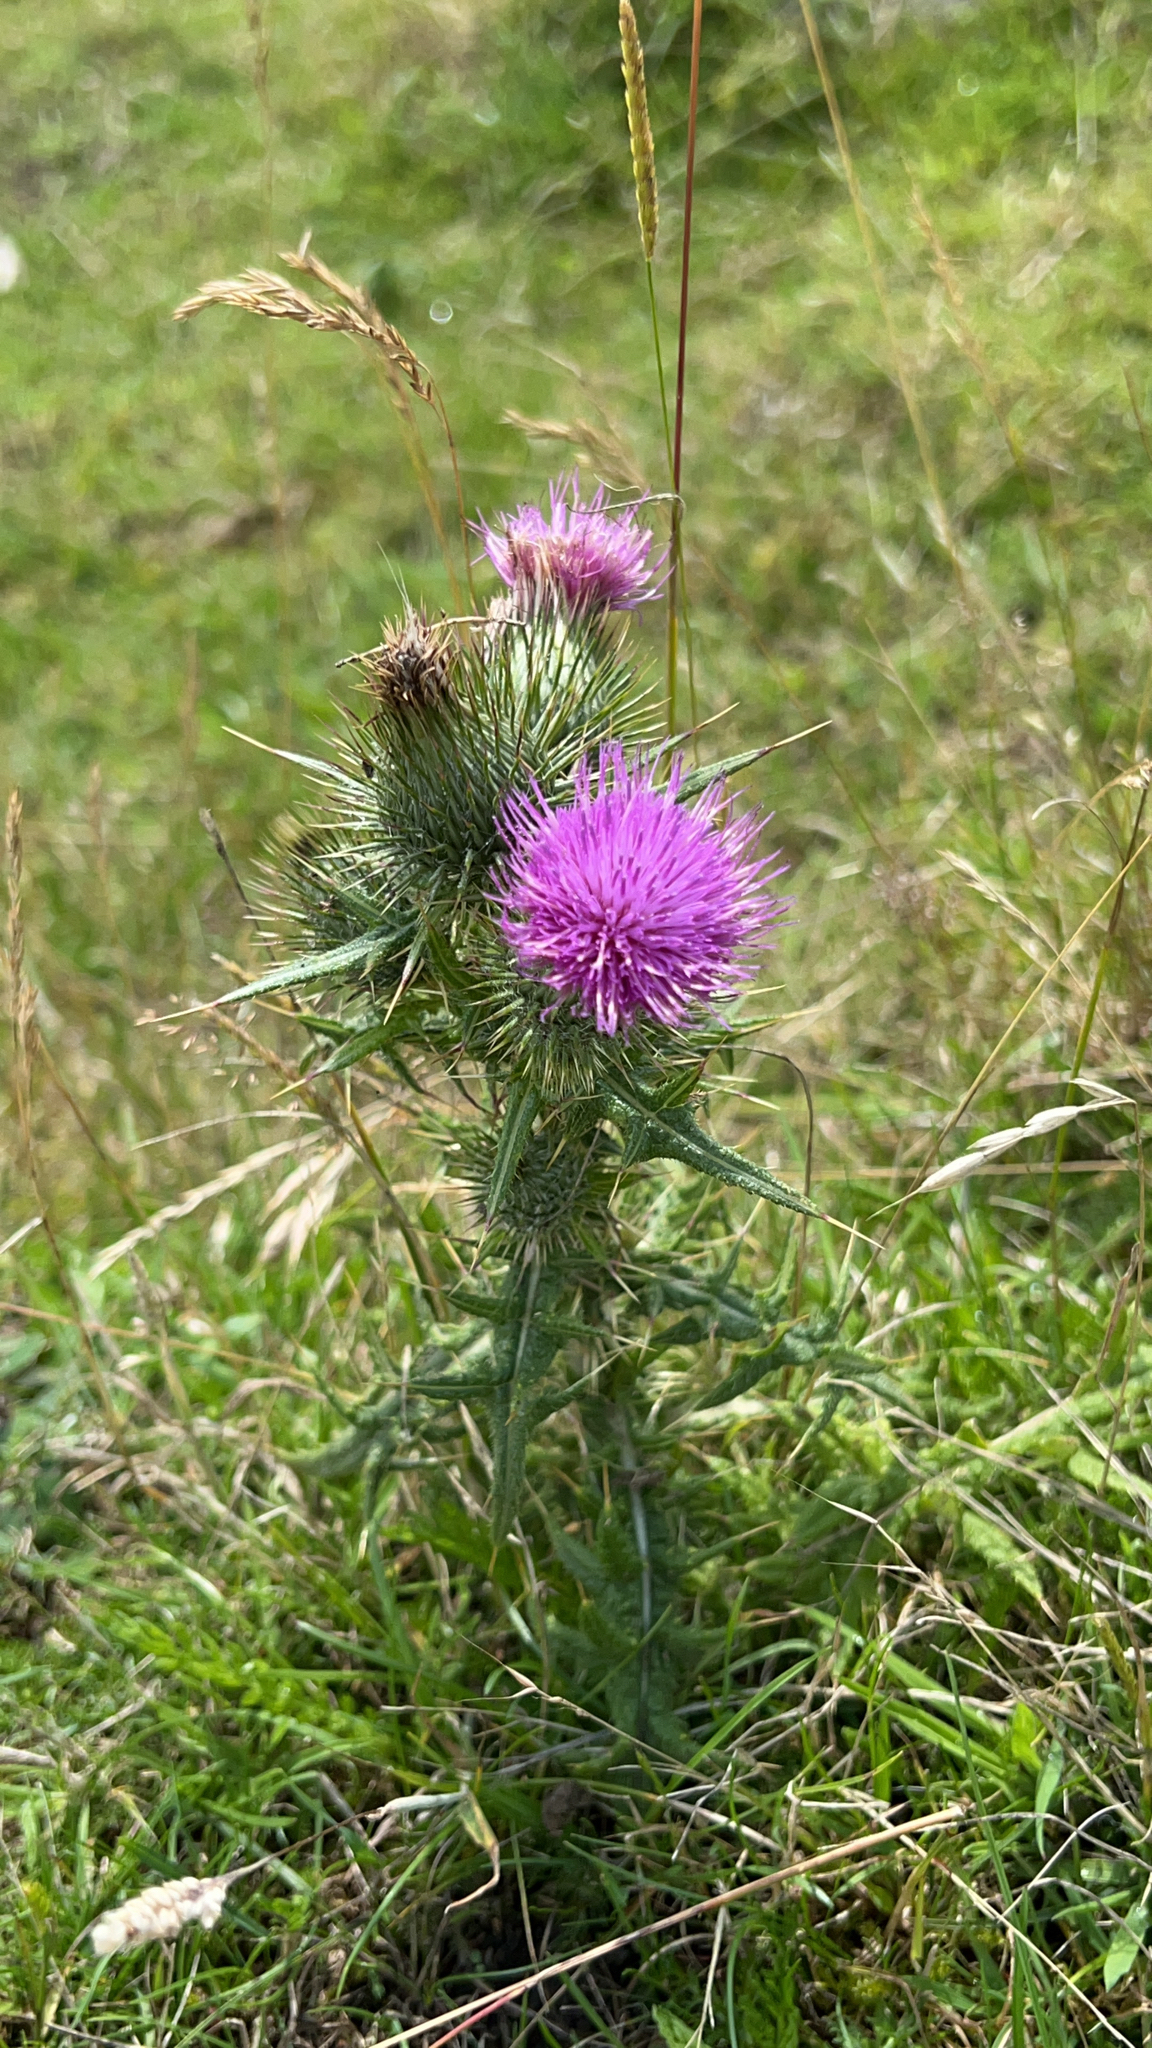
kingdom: Plantae
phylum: Tracheophyta
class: Magnoliopsida
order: Asterales
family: Asteraceae
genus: Cirsium
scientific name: Cirsium vulgare
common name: Bull thistle
